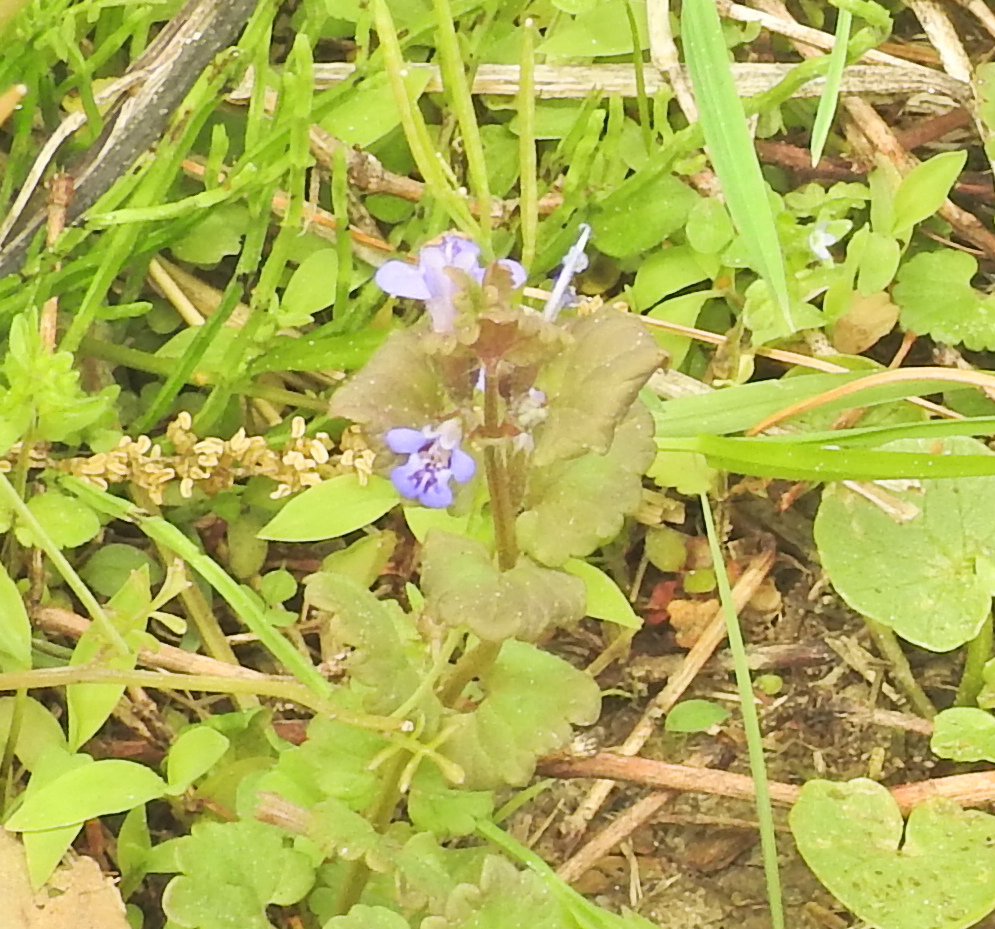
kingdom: Plantae
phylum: Tracheophyta
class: Magnoliopsida
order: Lamiales
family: Lamiaceae
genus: Glechoma
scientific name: Glechoma hederacea
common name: Ground ivy
